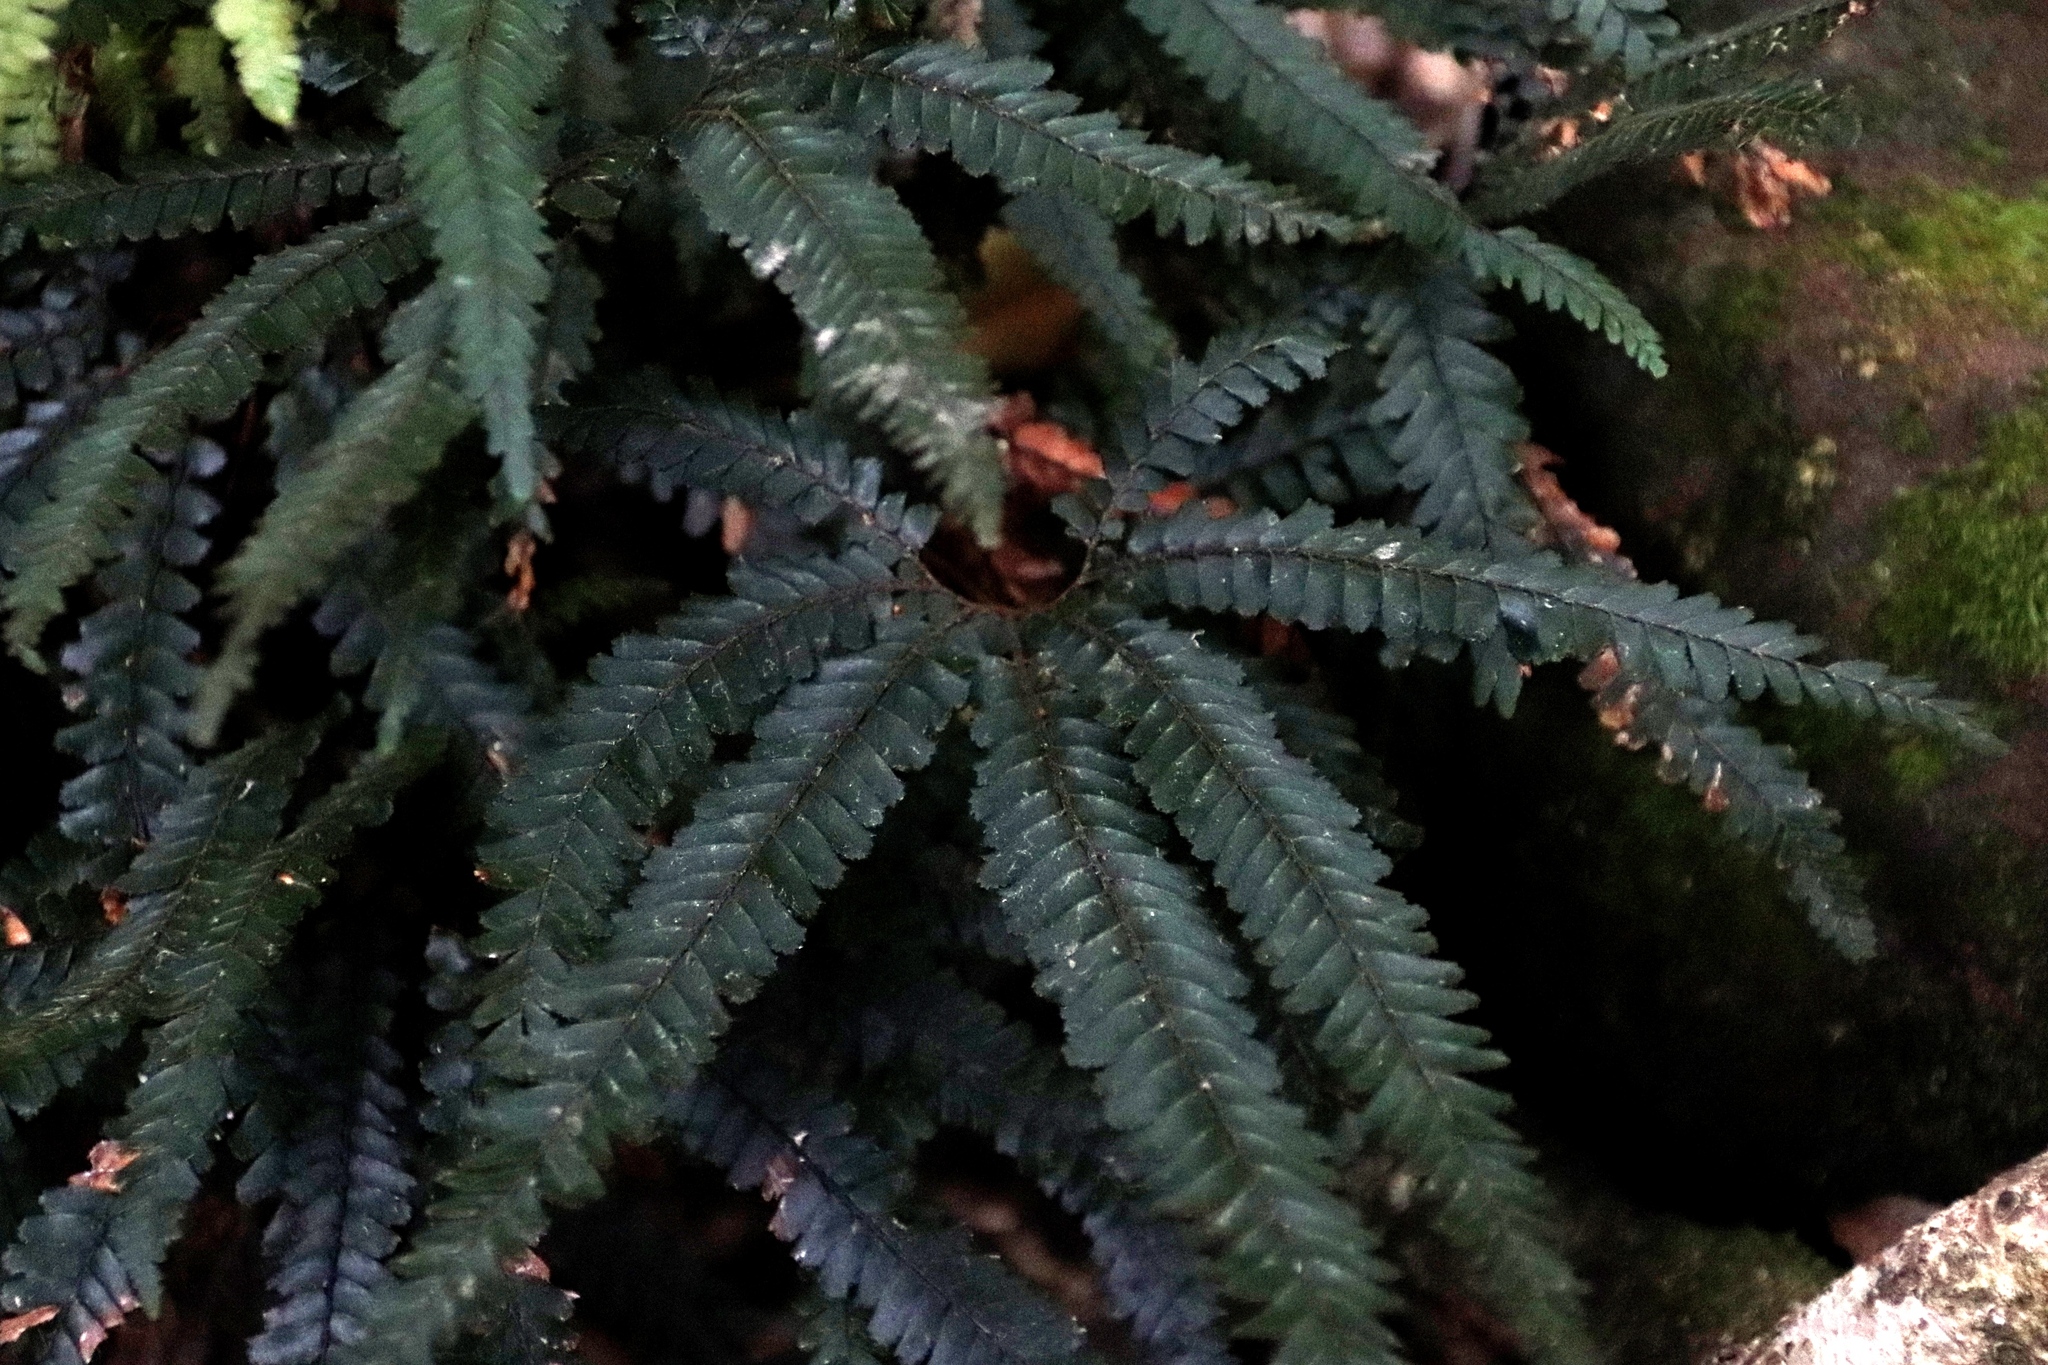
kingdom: Plantae
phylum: Tracheophyta
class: Polypodiopsida
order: Polypodiales
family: Pteridaceae
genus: Adiantum
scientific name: Adiantum hispidulum
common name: Rough maidenhair
